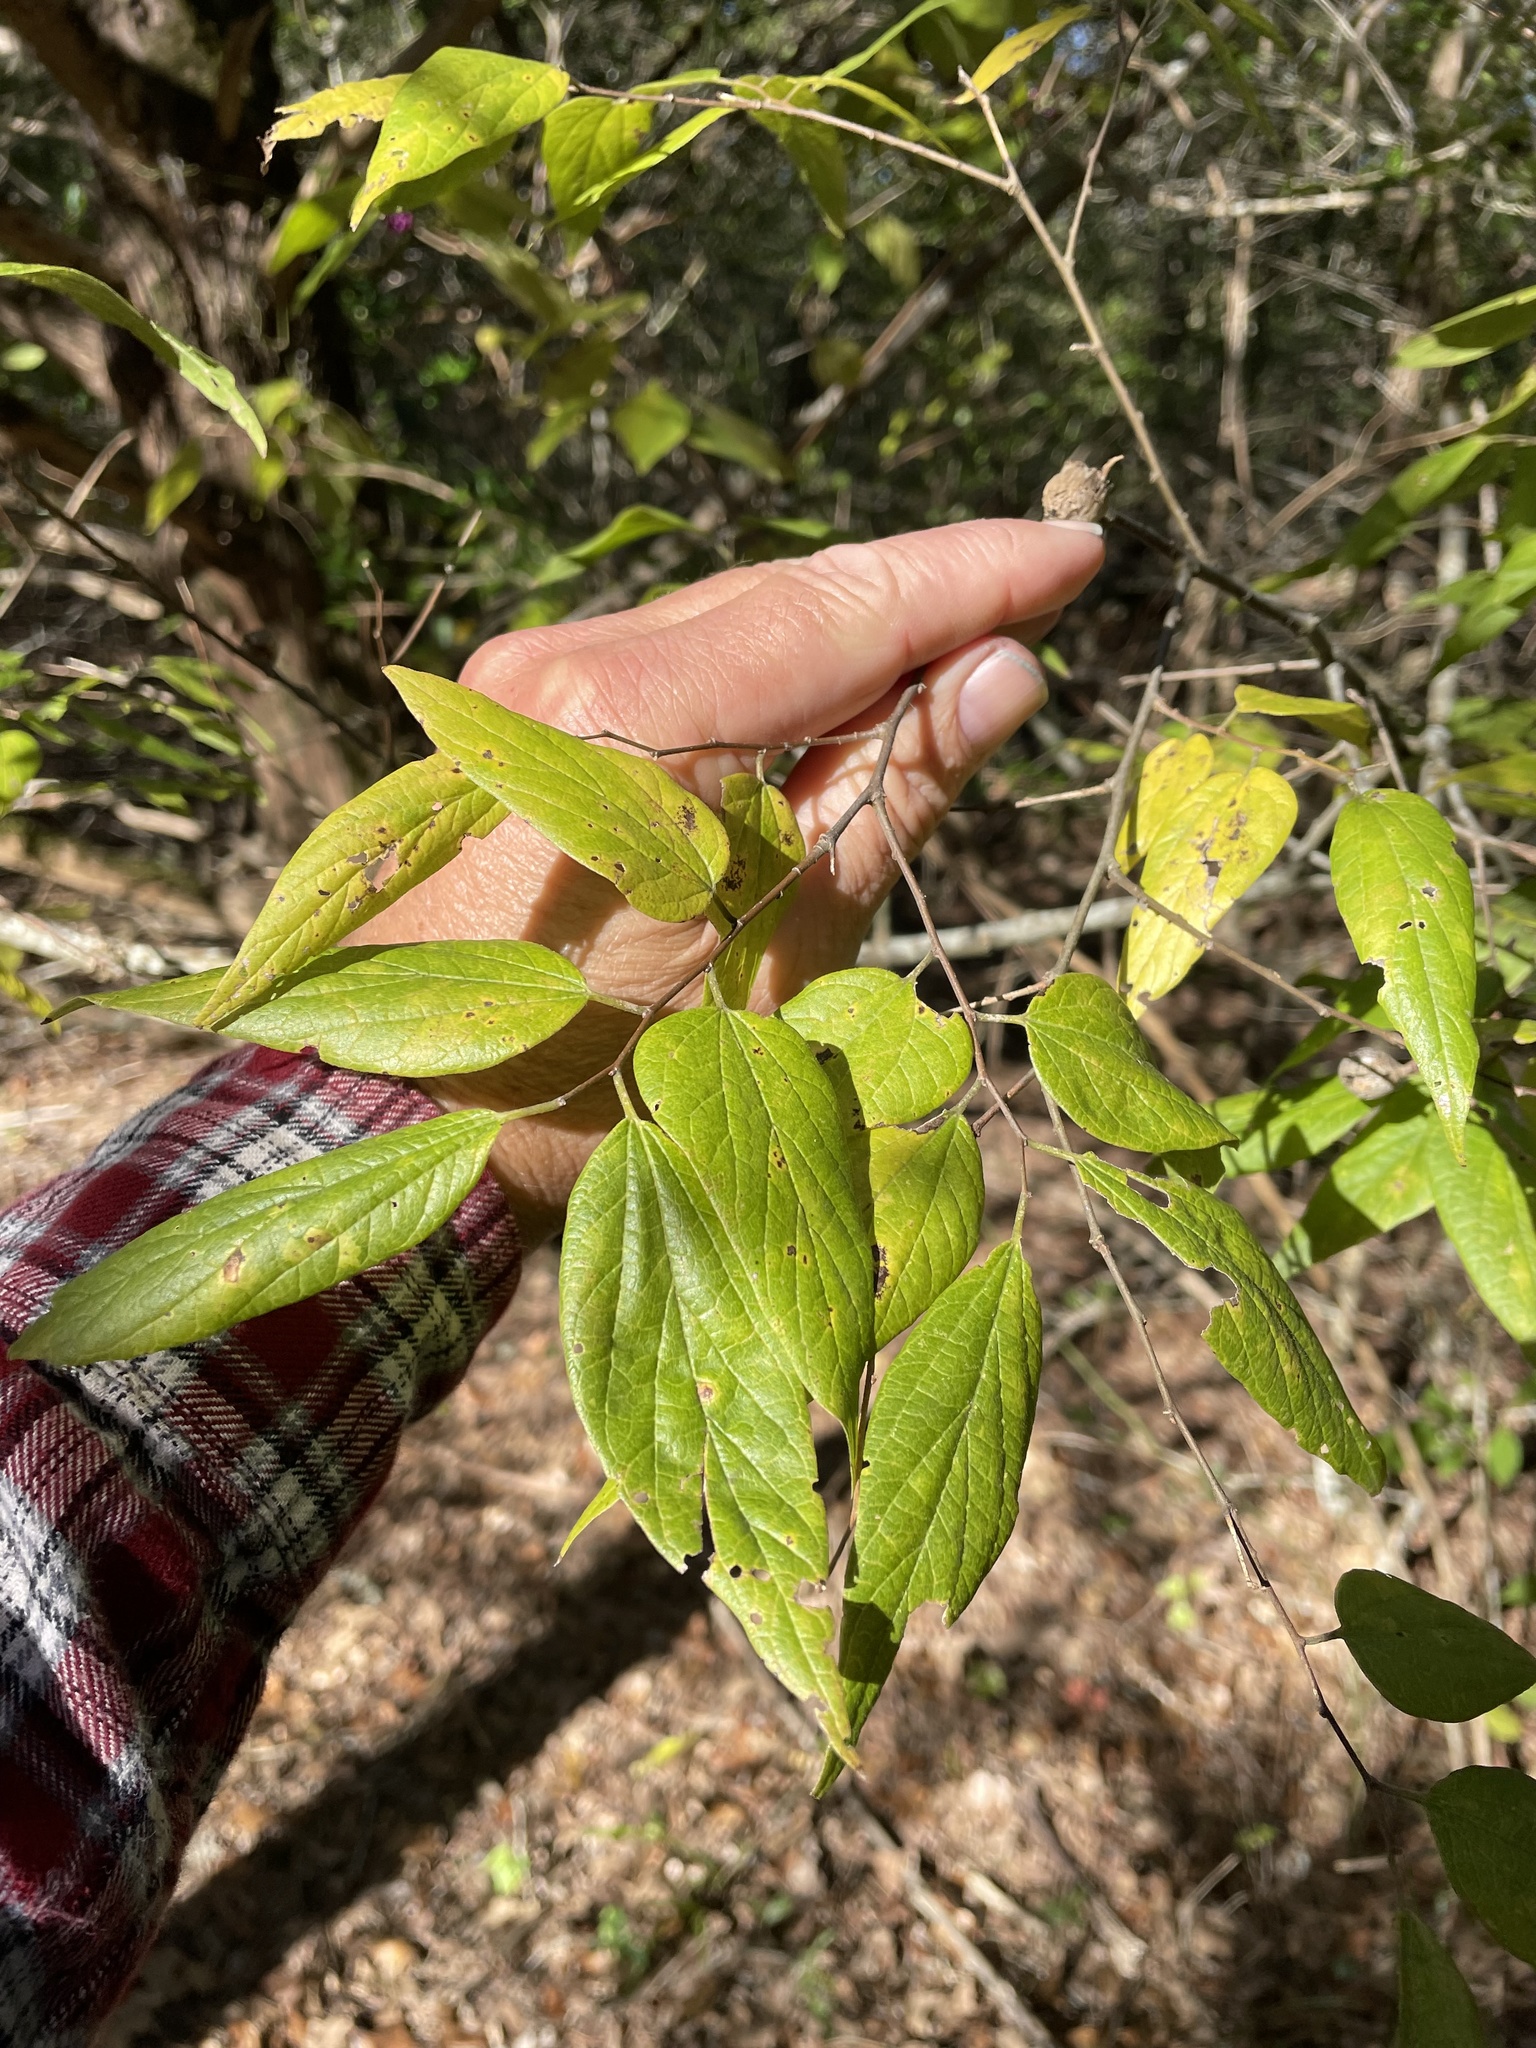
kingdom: Plantae
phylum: Tracheophyta
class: Magnoliopsida
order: Rosales
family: Cannabaceae
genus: Celtis
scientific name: Celtis laevigata
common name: Sugarberry
